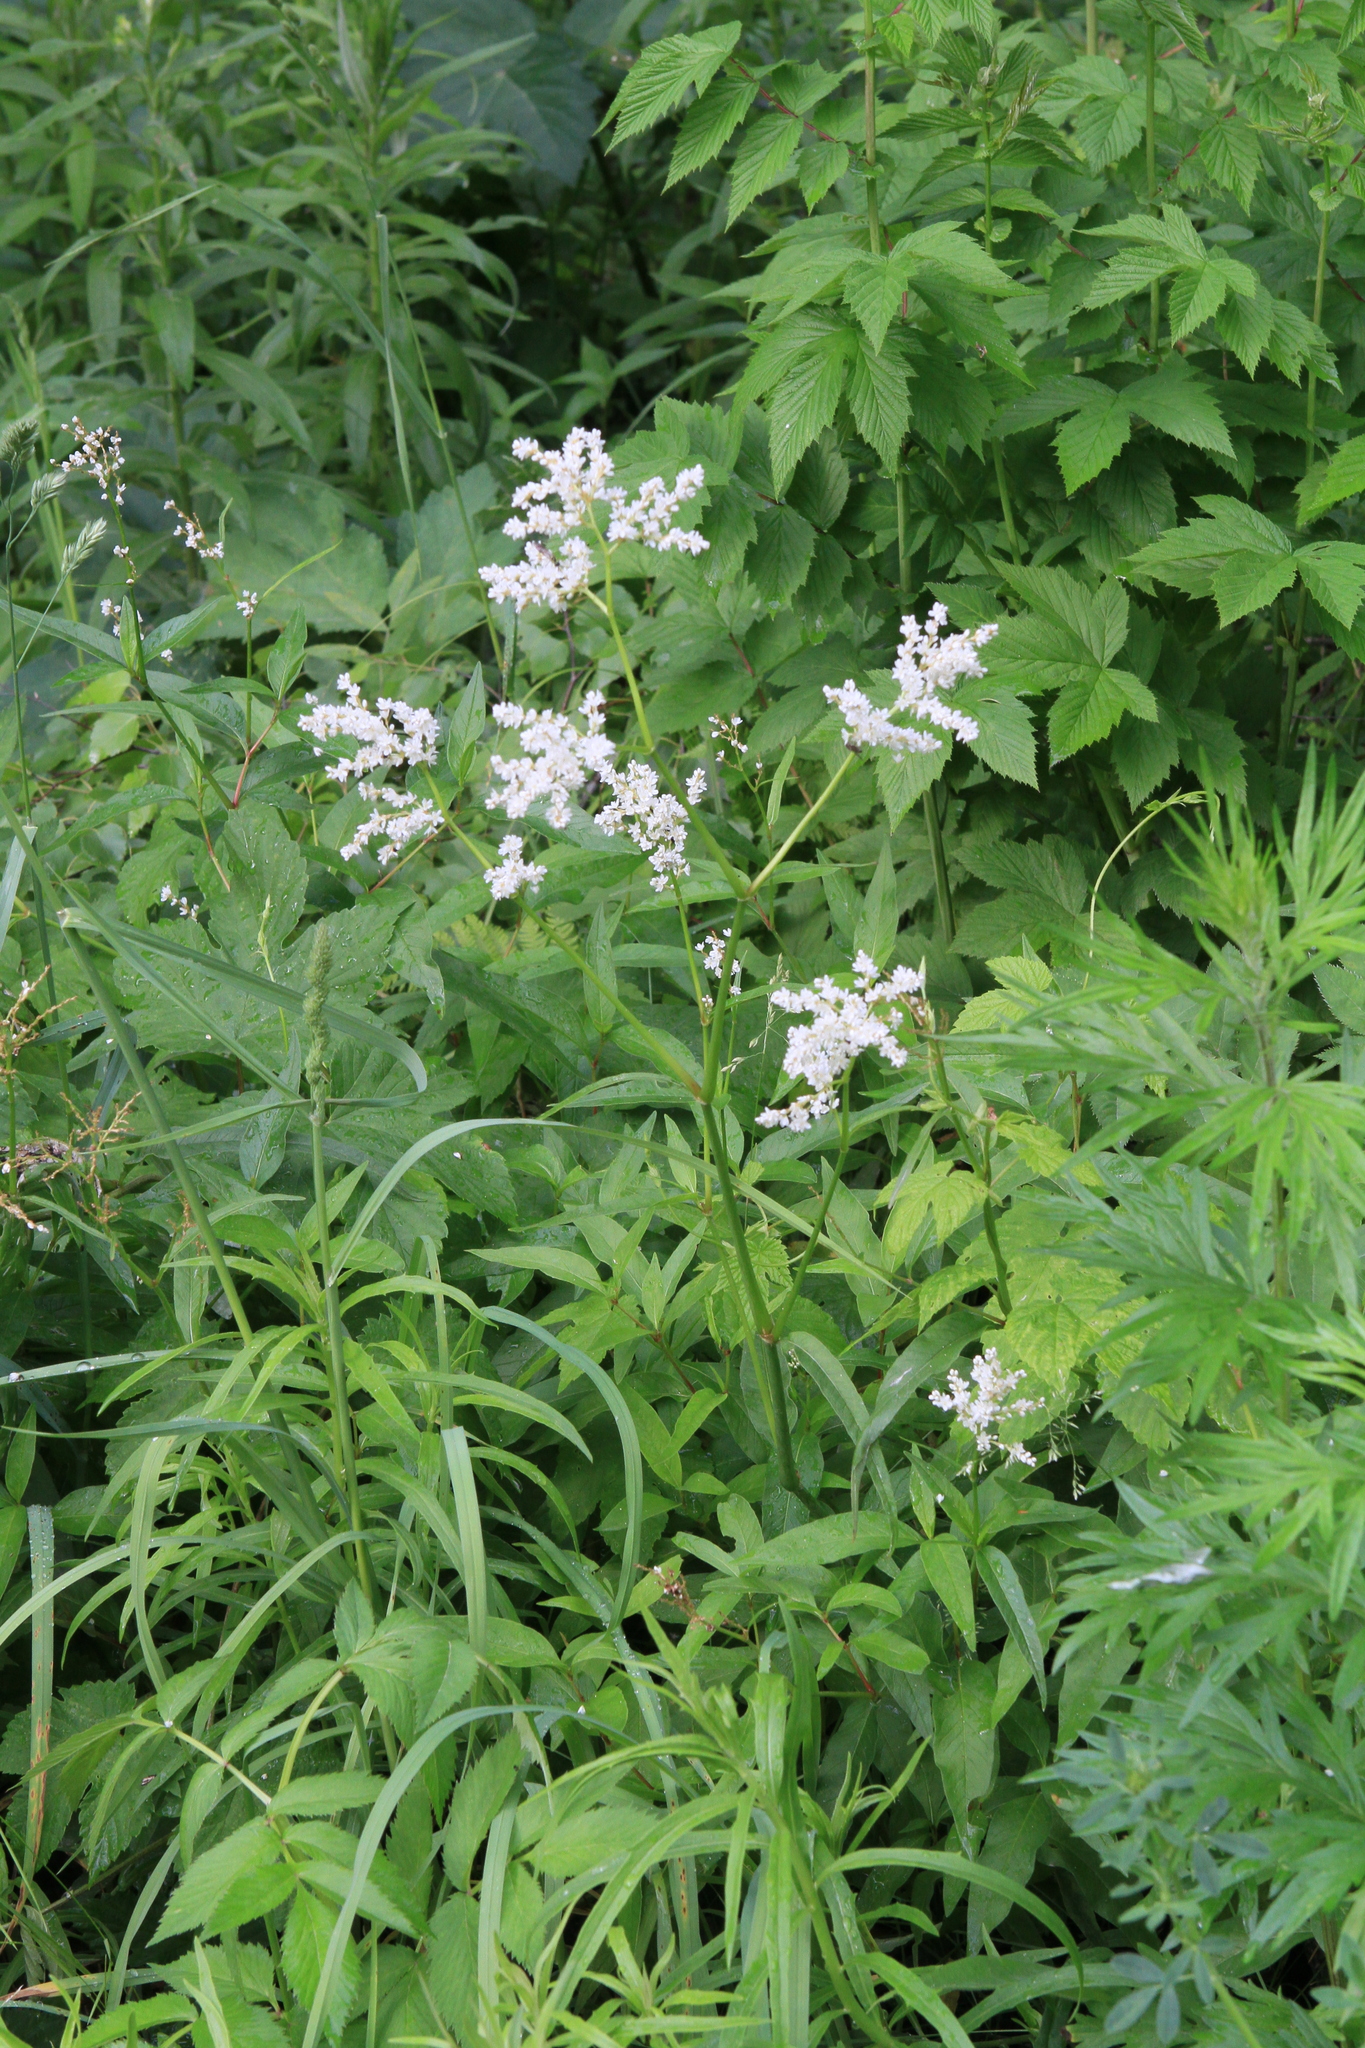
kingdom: Plantae
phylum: Tracheophyta
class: Magnoliopsida
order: Caryophyllales
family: Polygonaceae
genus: Koenigia
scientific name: Koenigia alpina
